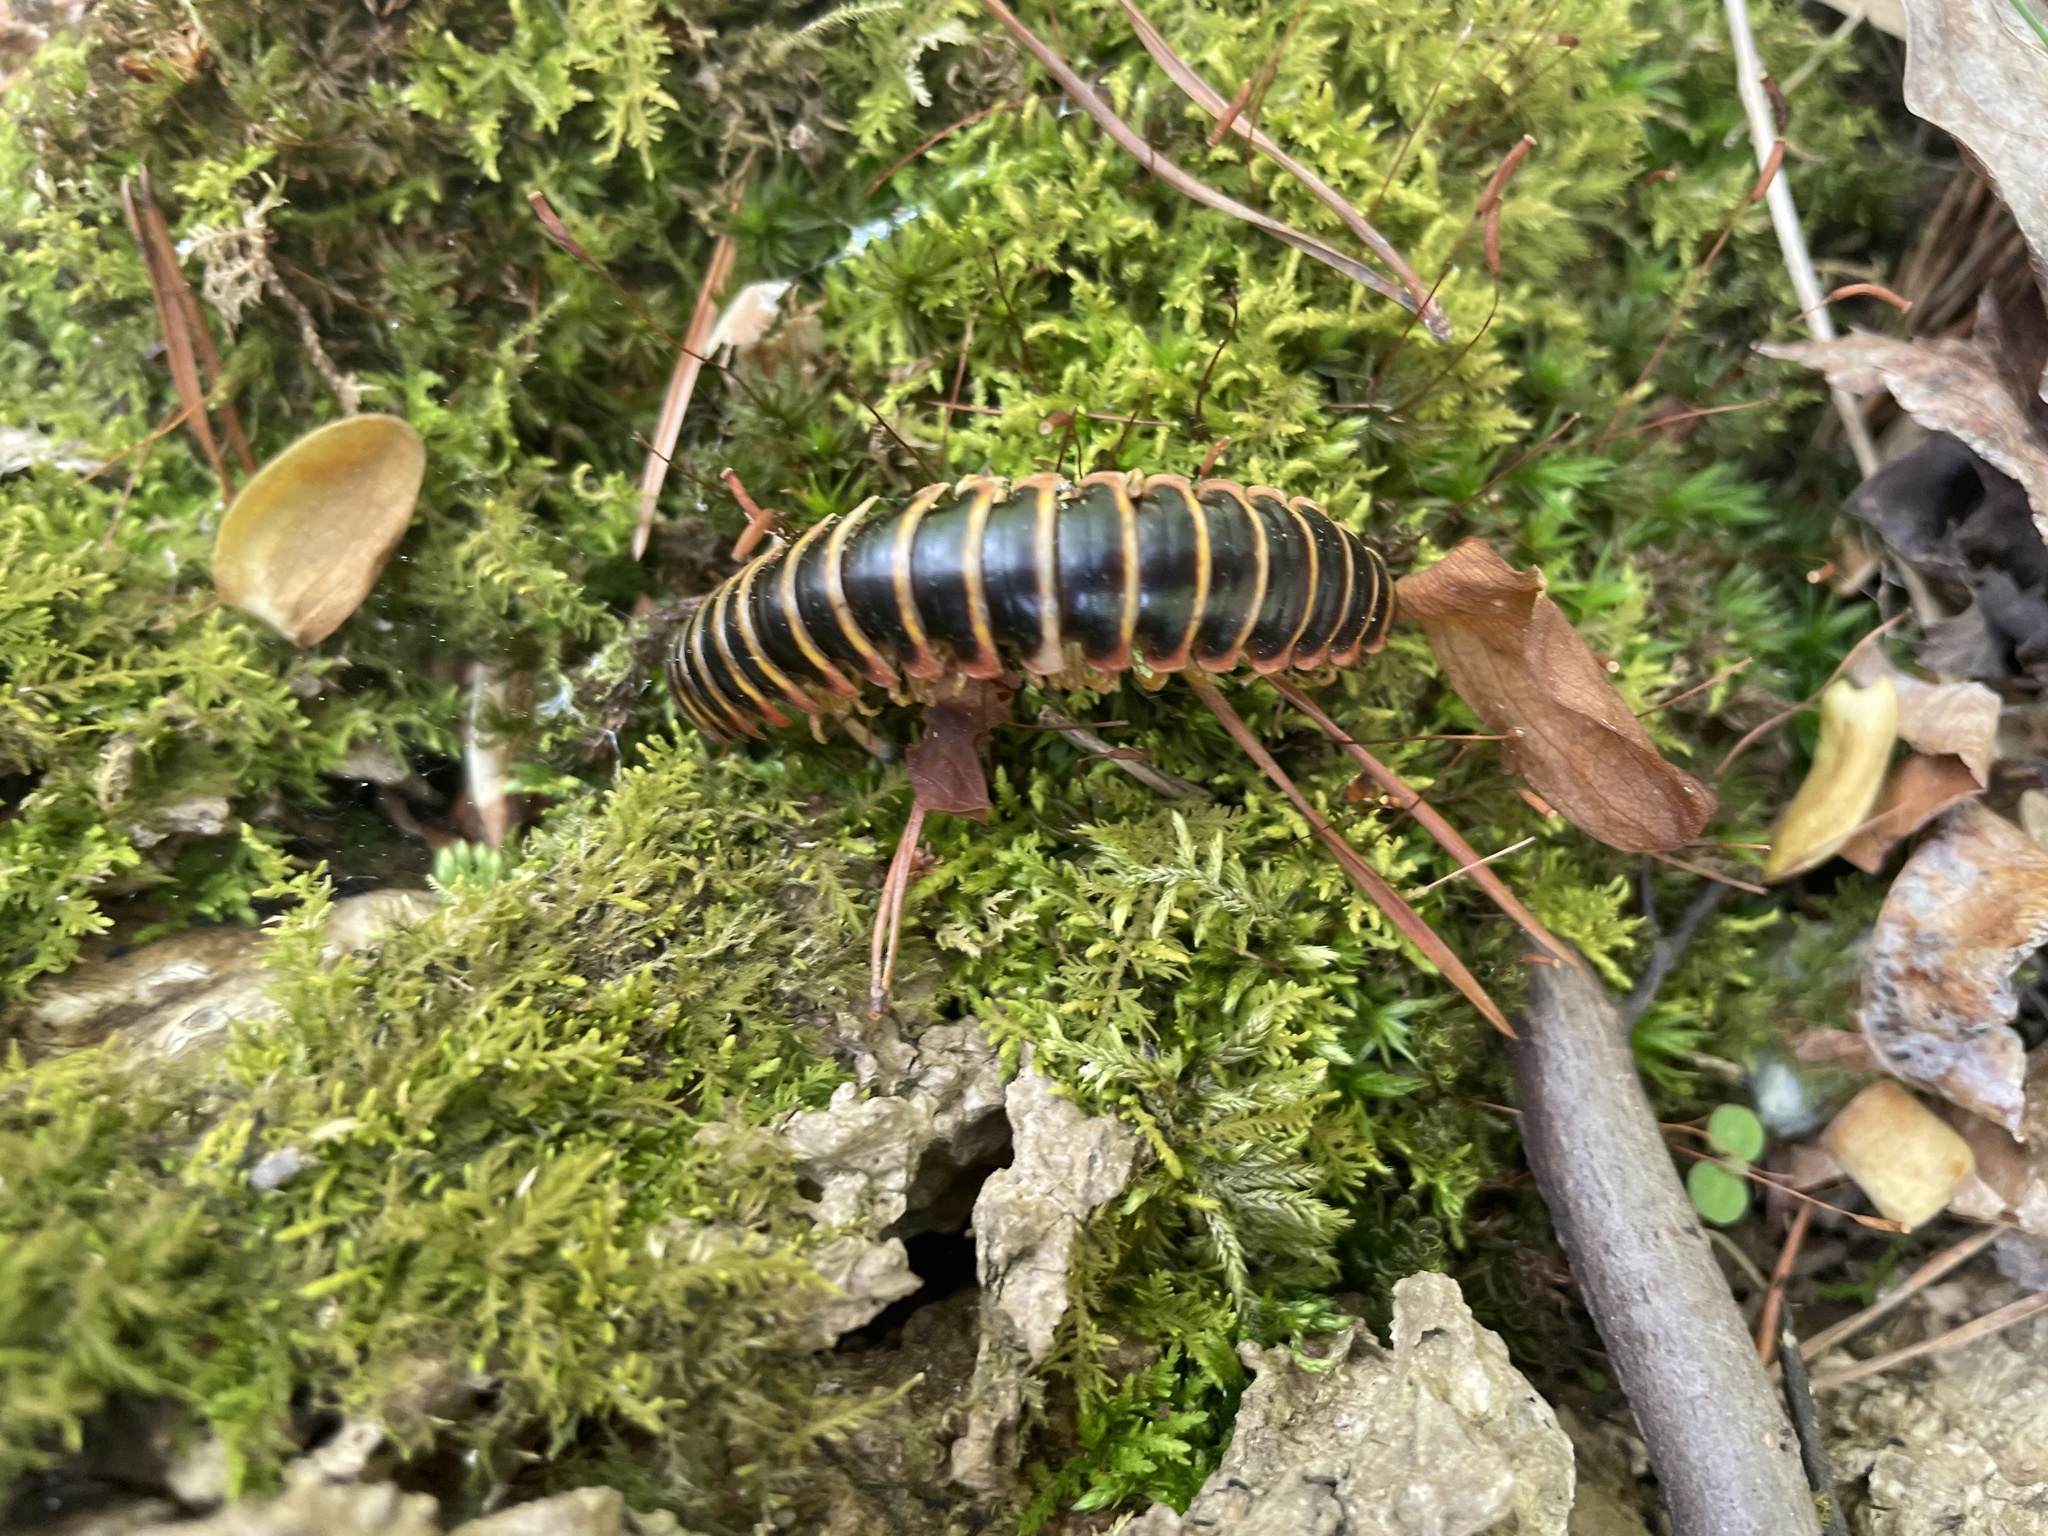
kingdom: Animalia
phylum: Arthropoda
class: Diplopoda
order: Polydesmida
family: Xystodesmidae
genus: Apheloria
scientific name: Apheloria virginiensis
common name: Black-and-gold flat millipede
